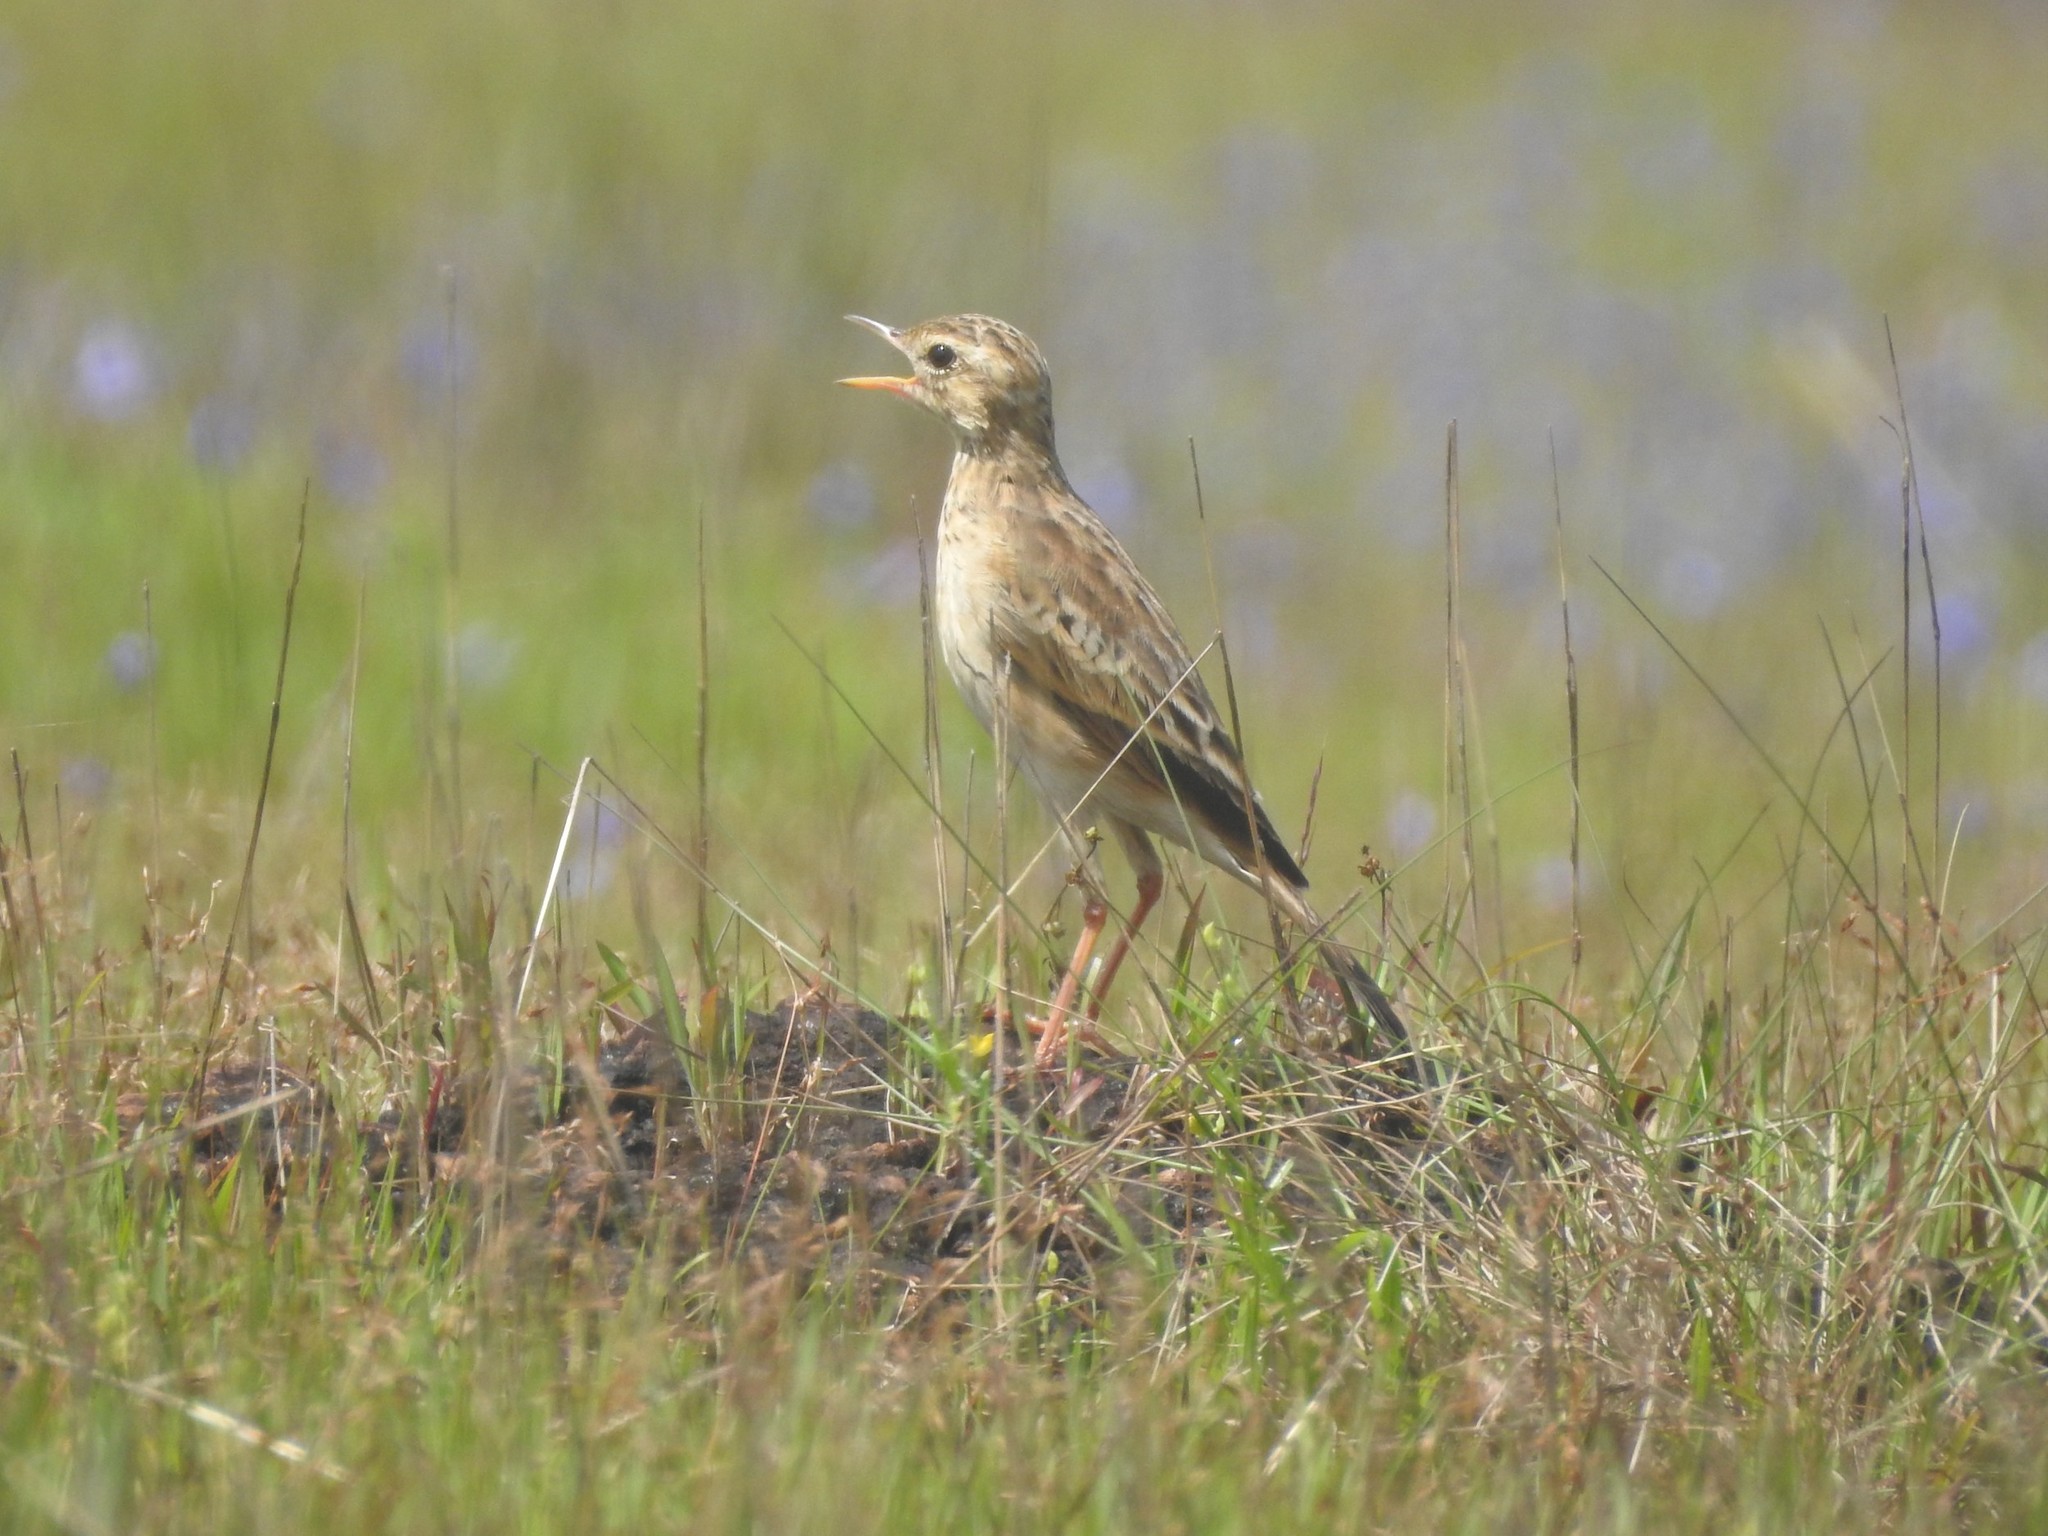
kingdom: Animalia
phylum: Chordata
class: Aves
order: Passeriformes
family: Motacillidae
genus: Anthus
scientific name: Anthus rufulus
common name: Paddyfield pipit
